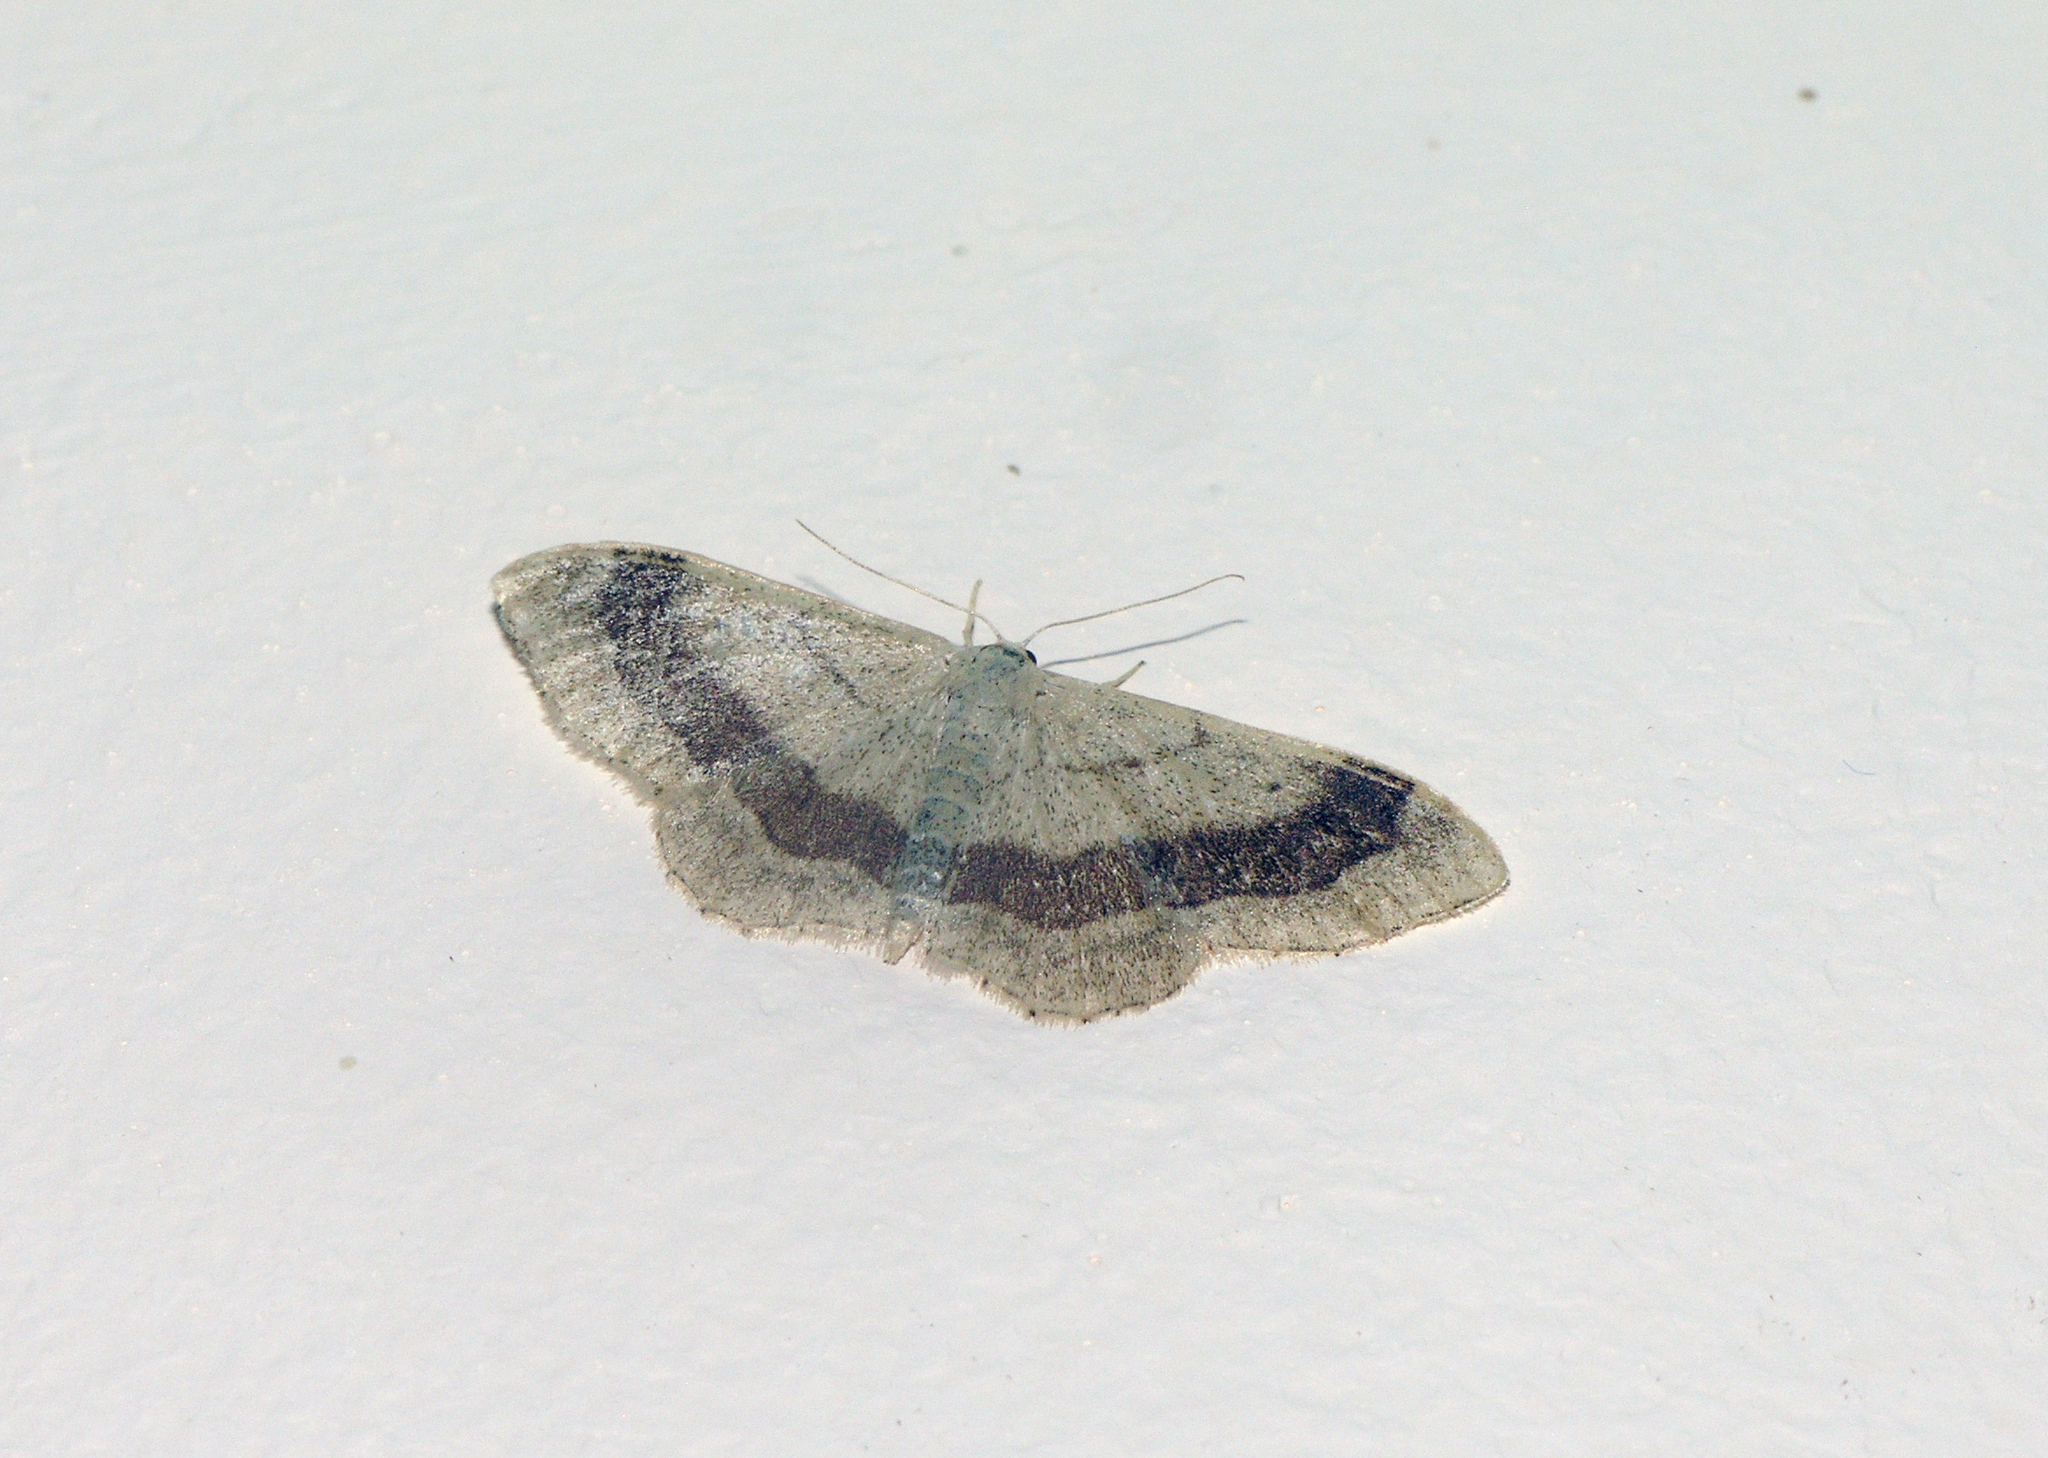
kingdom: Animalia
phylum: Arthropoda
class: Insecta
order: Lepidoptera
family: Geometridae
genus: Idaea
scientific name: Idaea aversata
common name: Riband wave
